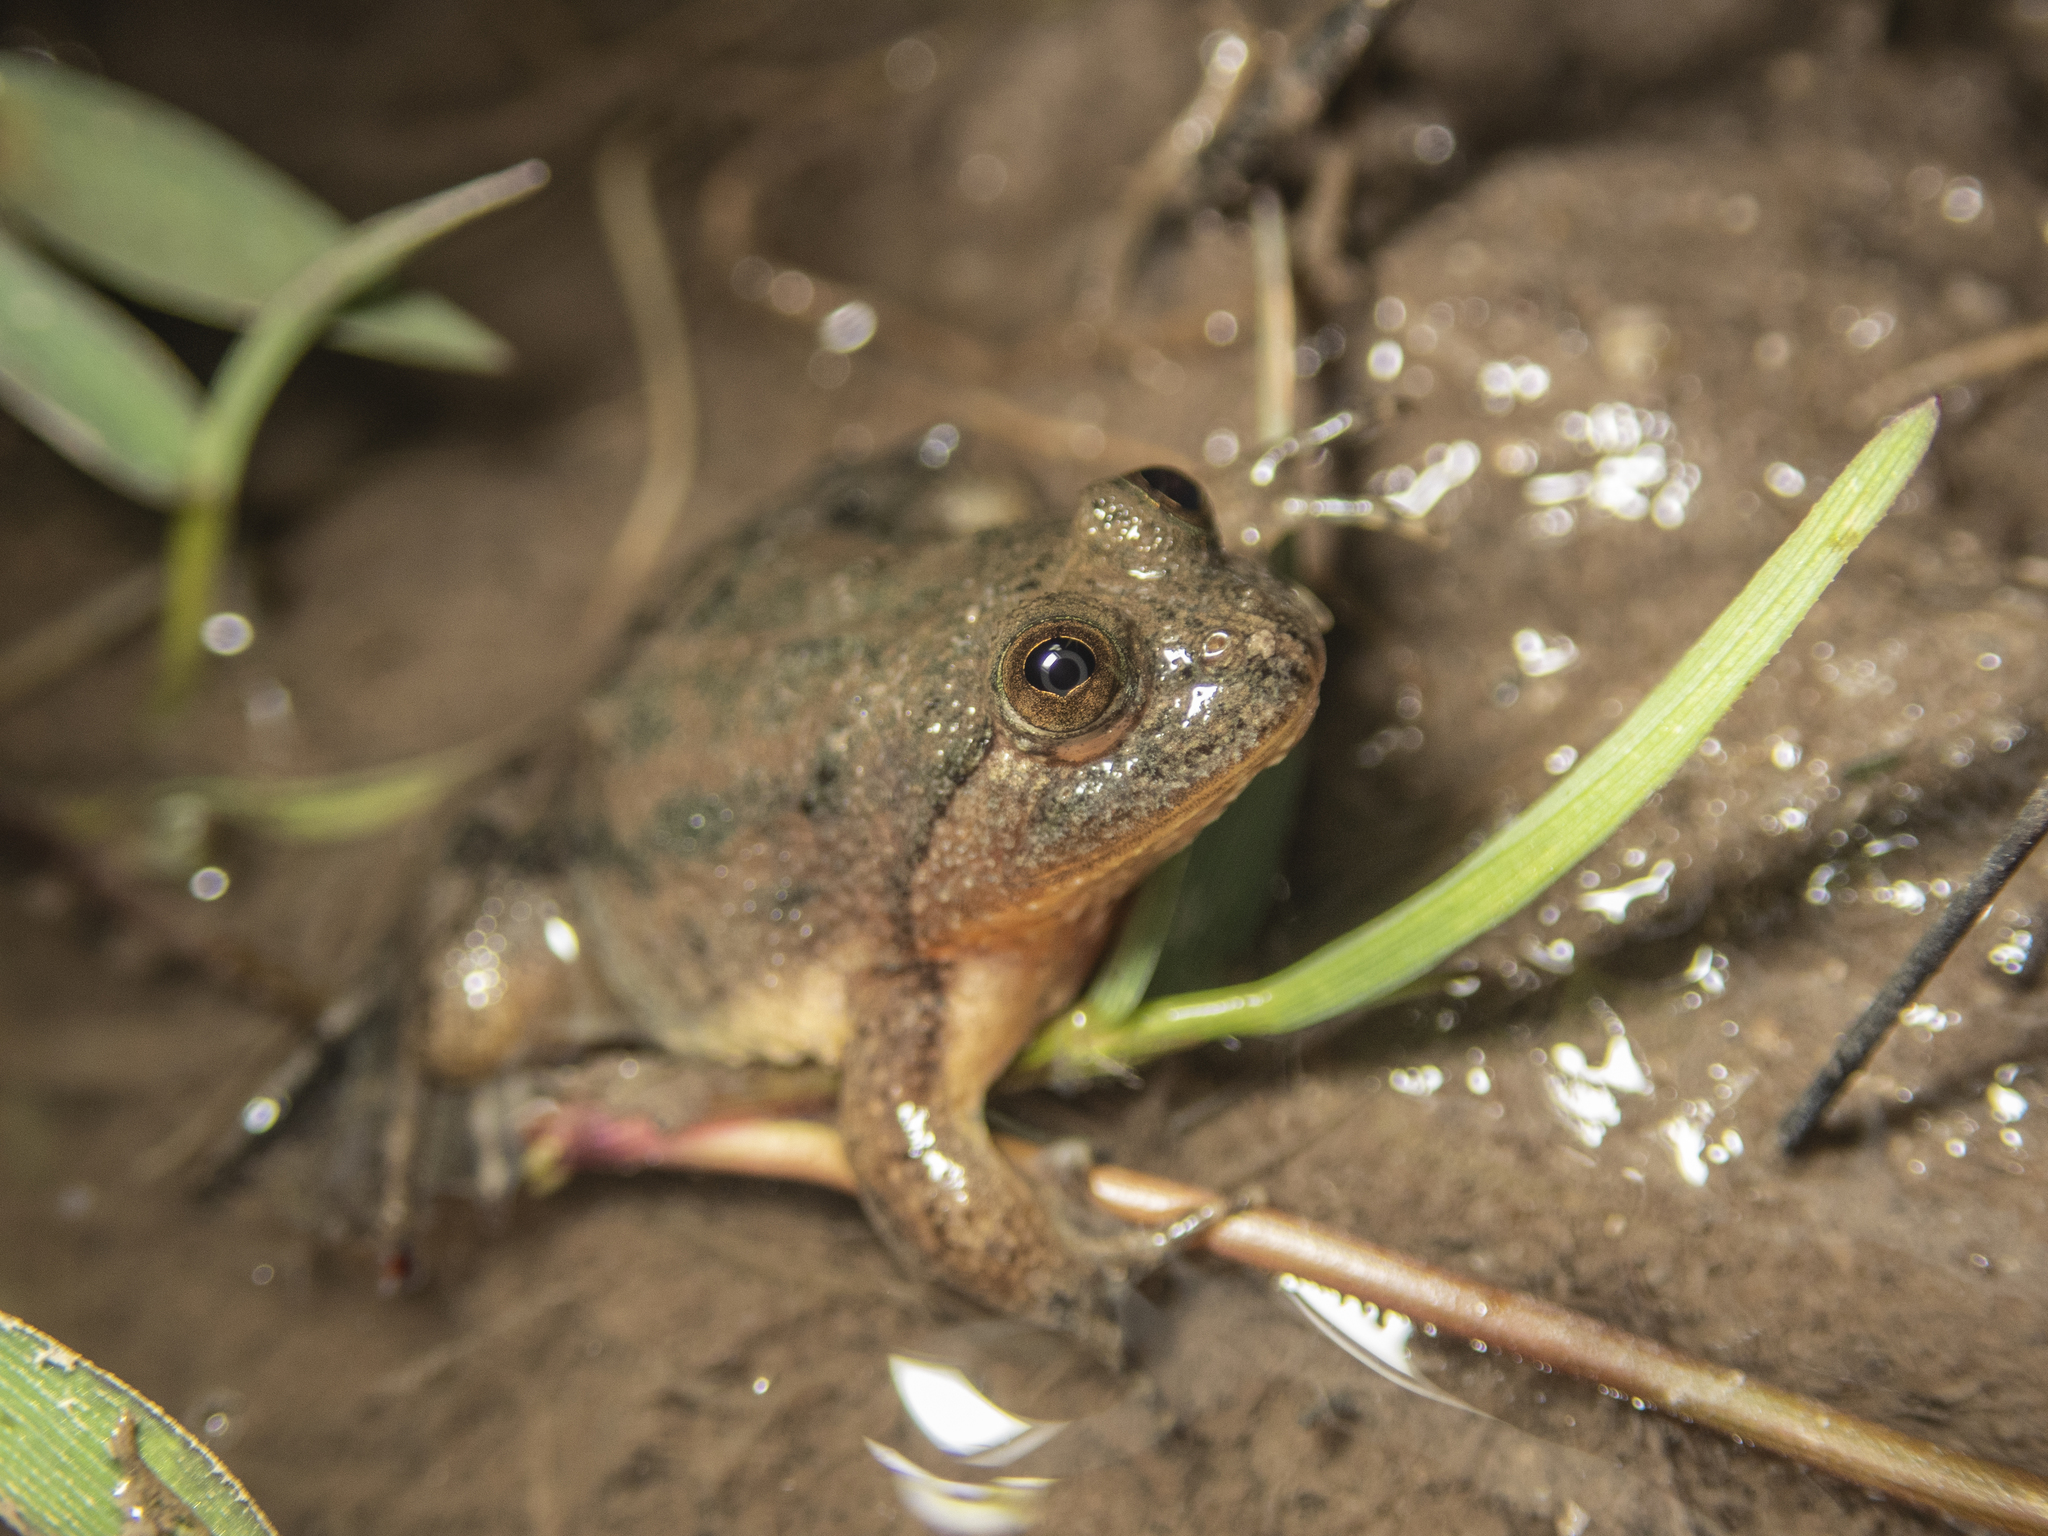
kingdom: Animalia
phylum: Chordata
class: Amphibia
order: Anura
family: Dicroglossidae
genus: Occidozyga
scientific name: Occidozyga lima
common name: Rough-skinned puddle frog/yellow-bellied puddle frog/green puddle frog/pointed-tongued floating frog
